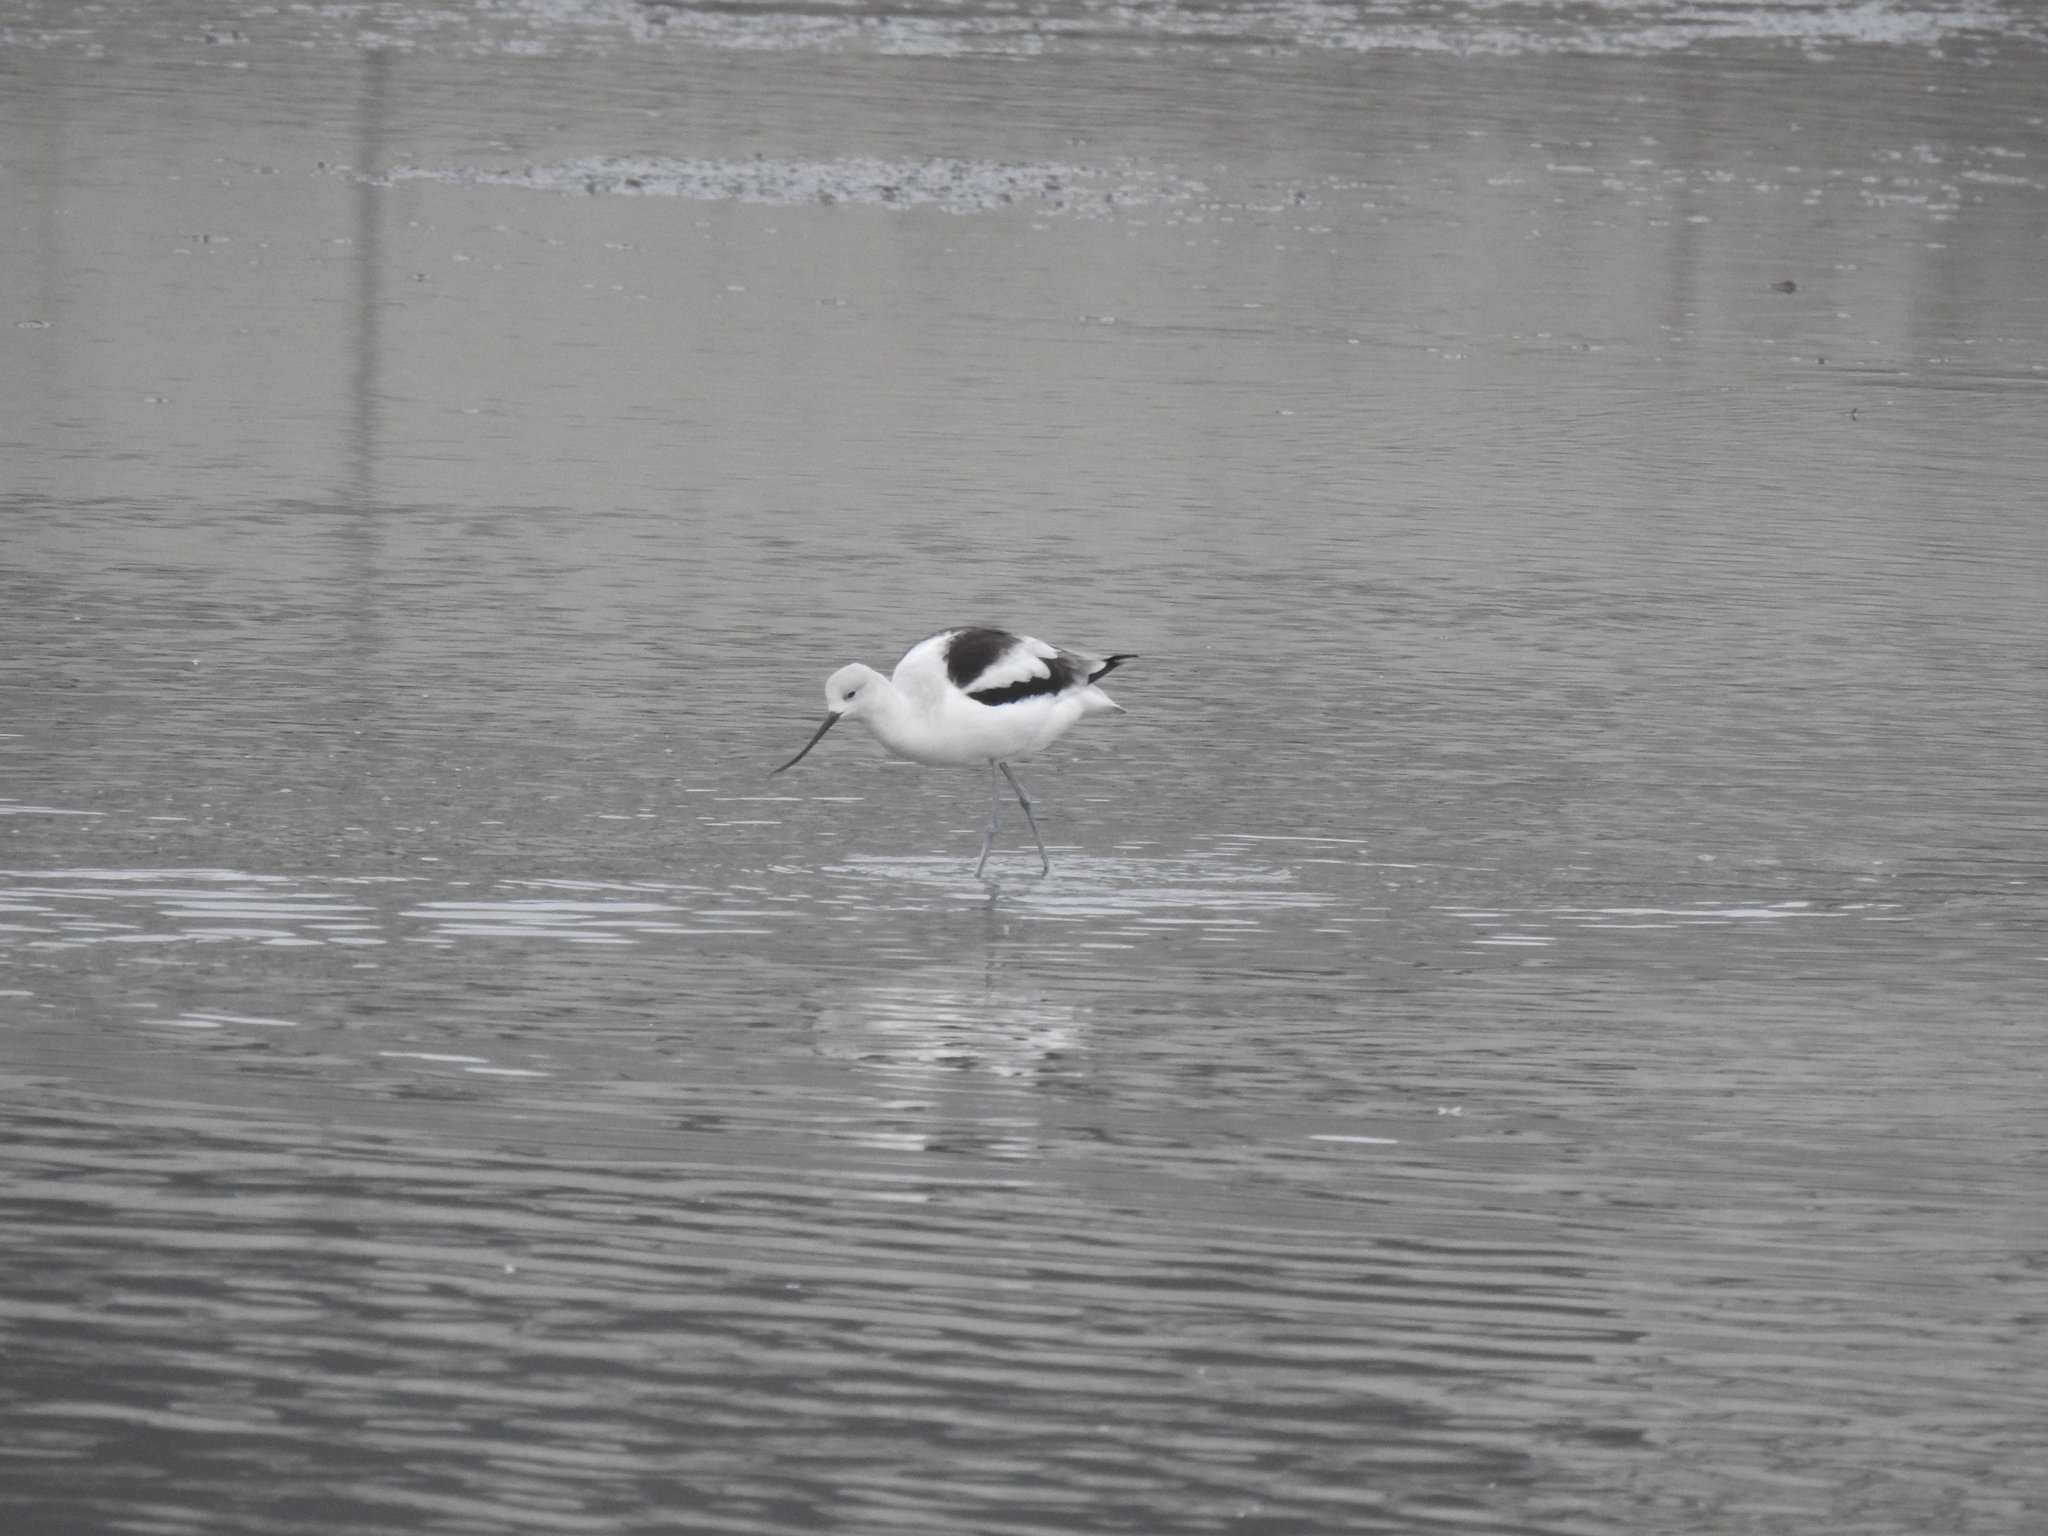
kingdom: Animalia
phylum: Chordata
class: Aves
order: Charadriiformes
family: Recurvirostridae
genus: Recurvirostra
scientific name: Recurvirostra americana
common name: American avocet
